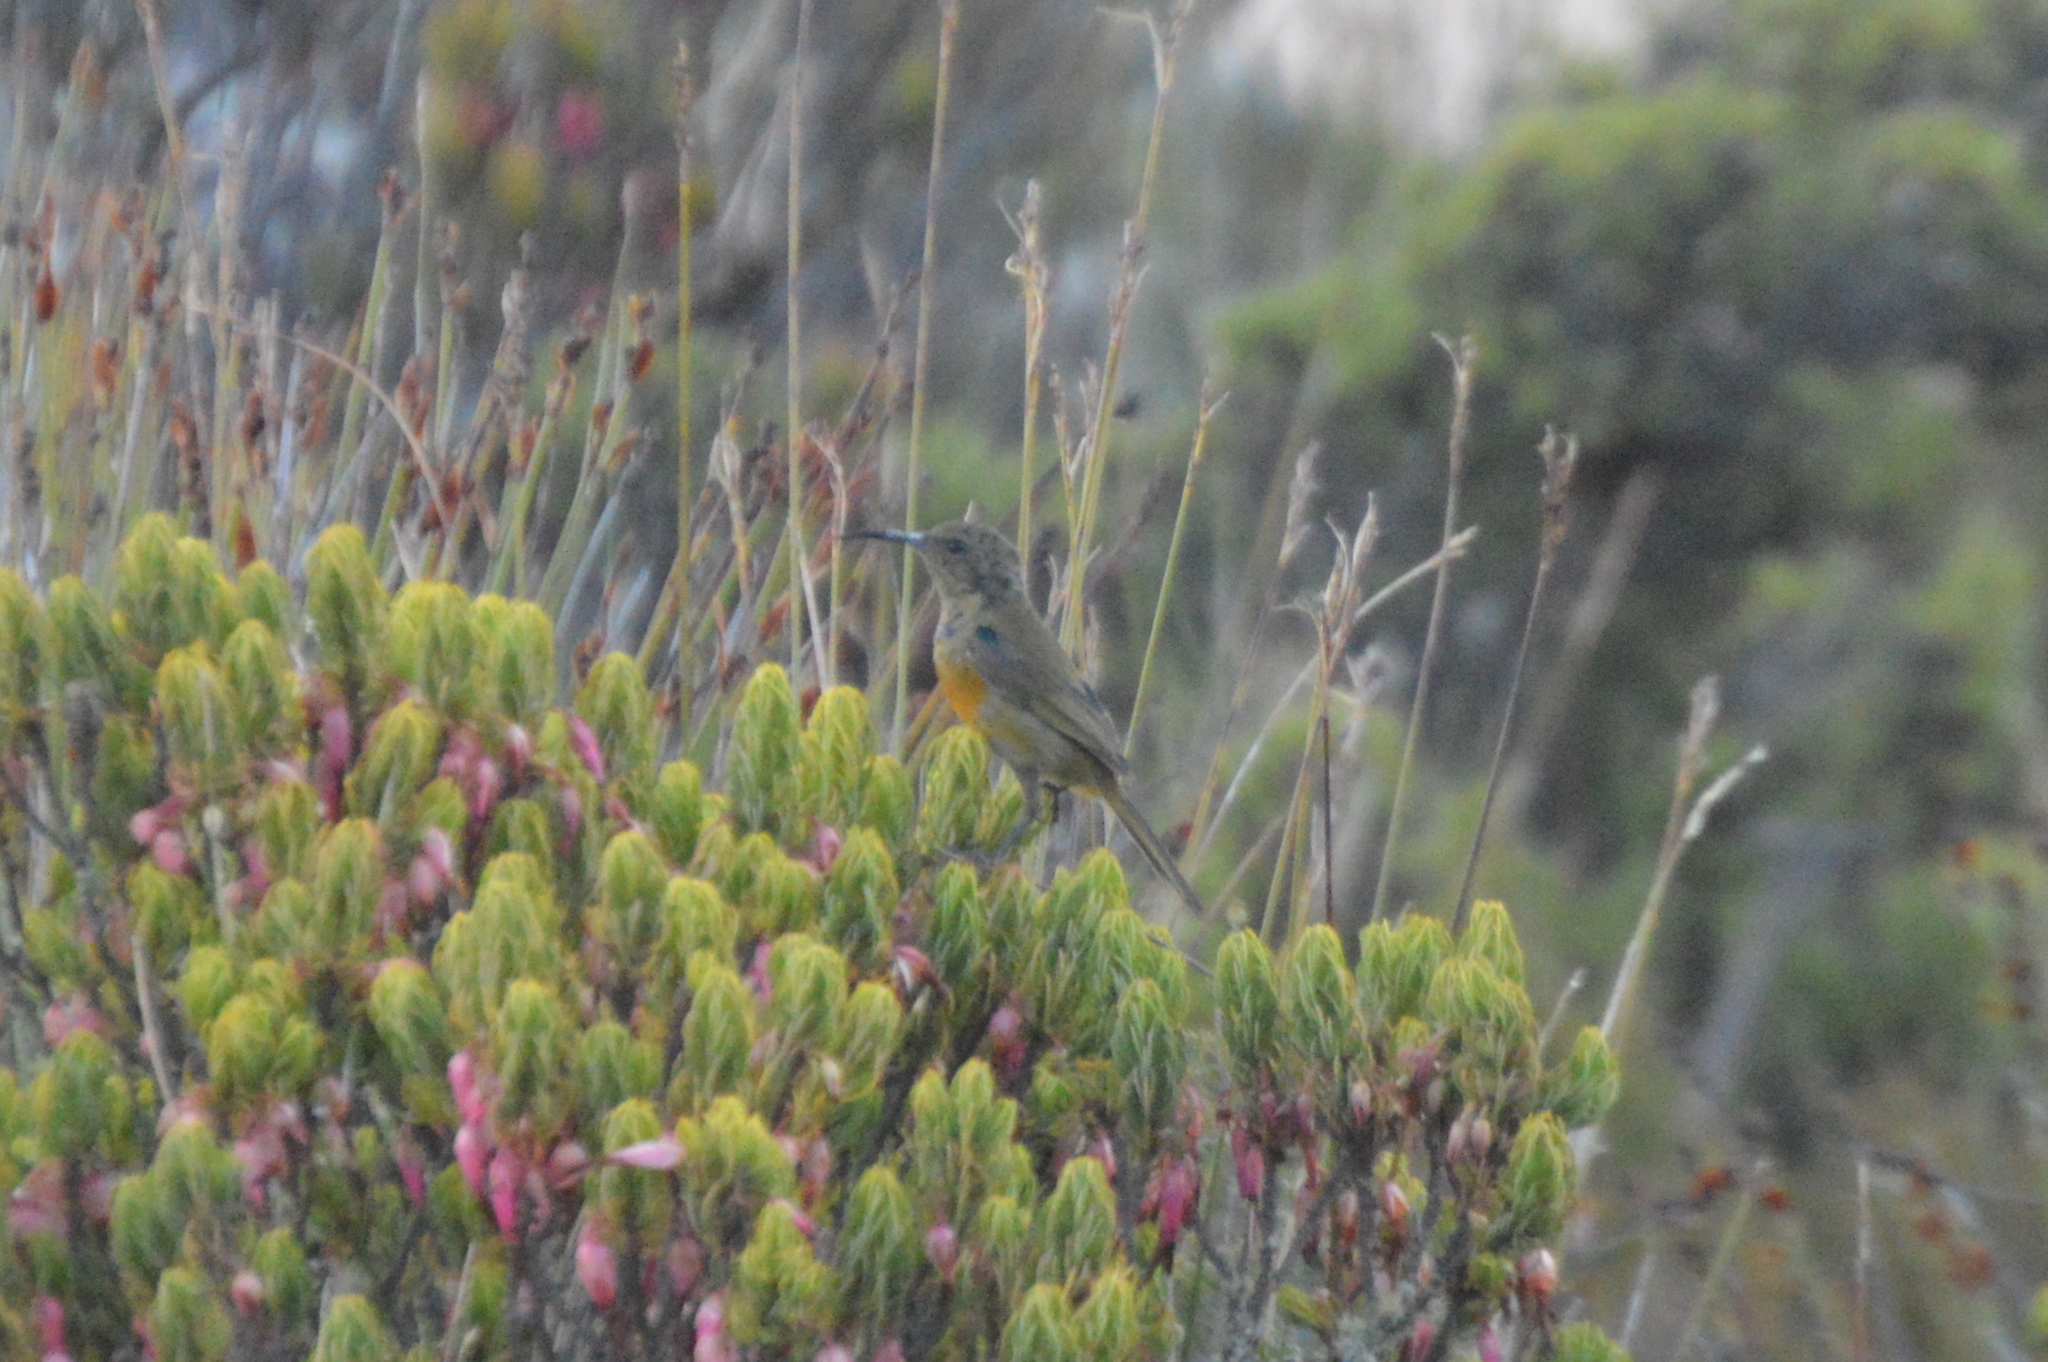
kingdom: Animalia
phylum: Chordata
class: Aves
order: Passeriformes
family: Nectariniidae
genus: Anthobaphes
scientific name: Anthobaphes violacea
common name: Orange-breasted sunbird
